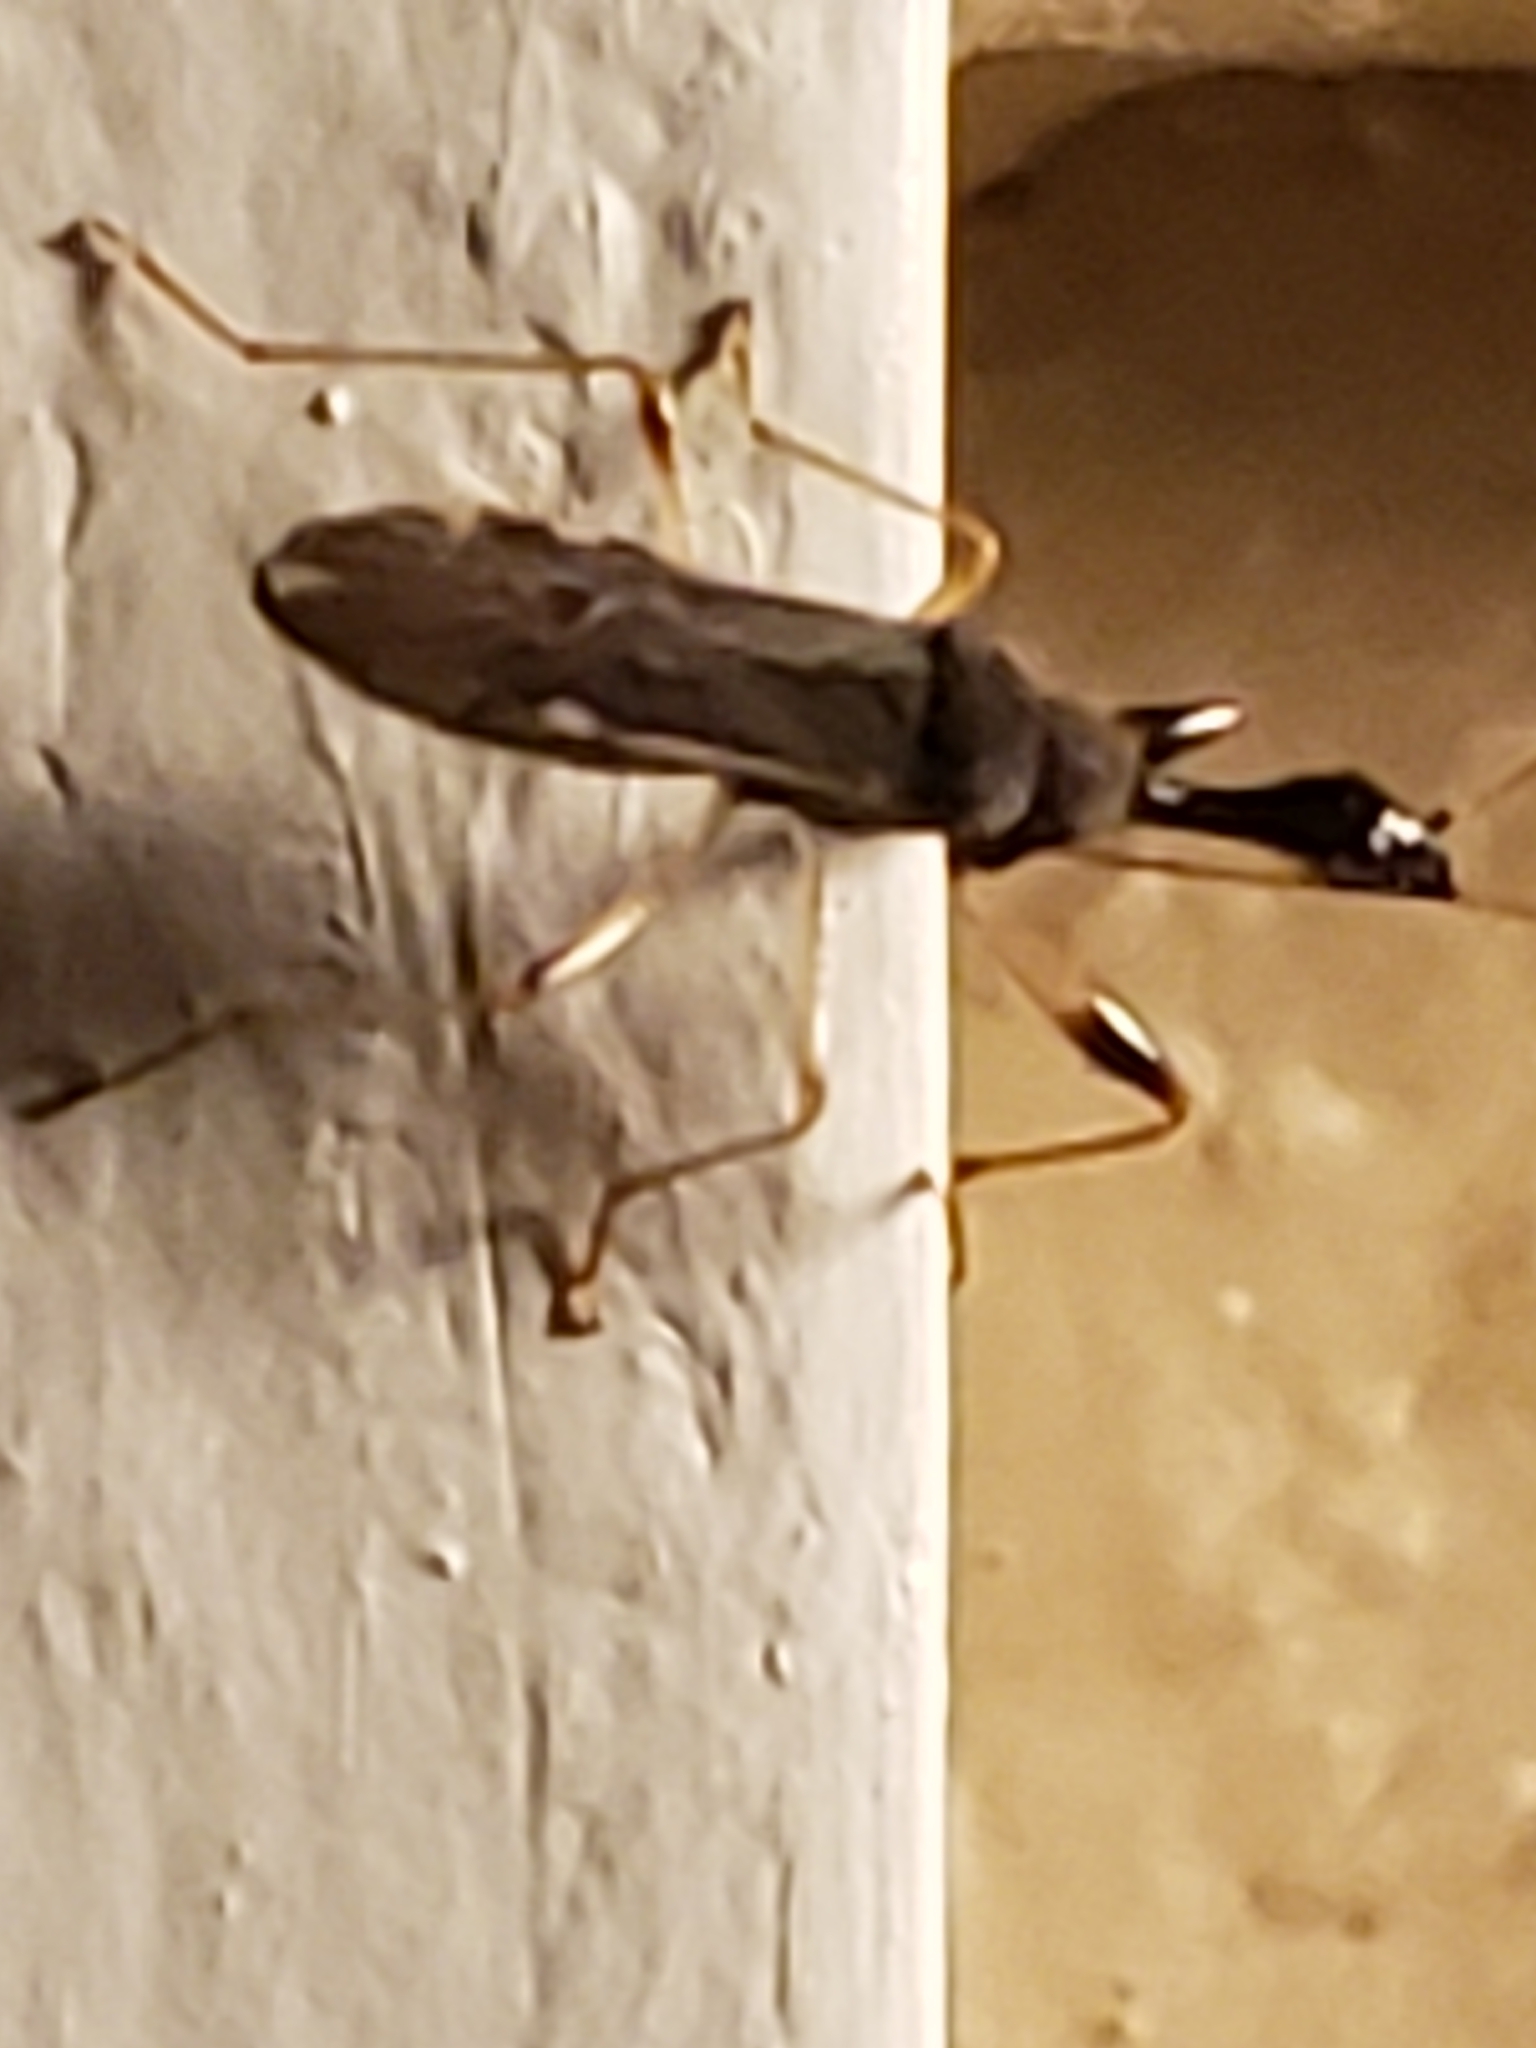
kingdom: Animalia
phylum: Arthropoda
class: Insecta
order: Hemiptera
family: Rhyparochromidae
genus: Myodocha
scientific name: Myodocha serripes
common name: Long-necked seed bug
